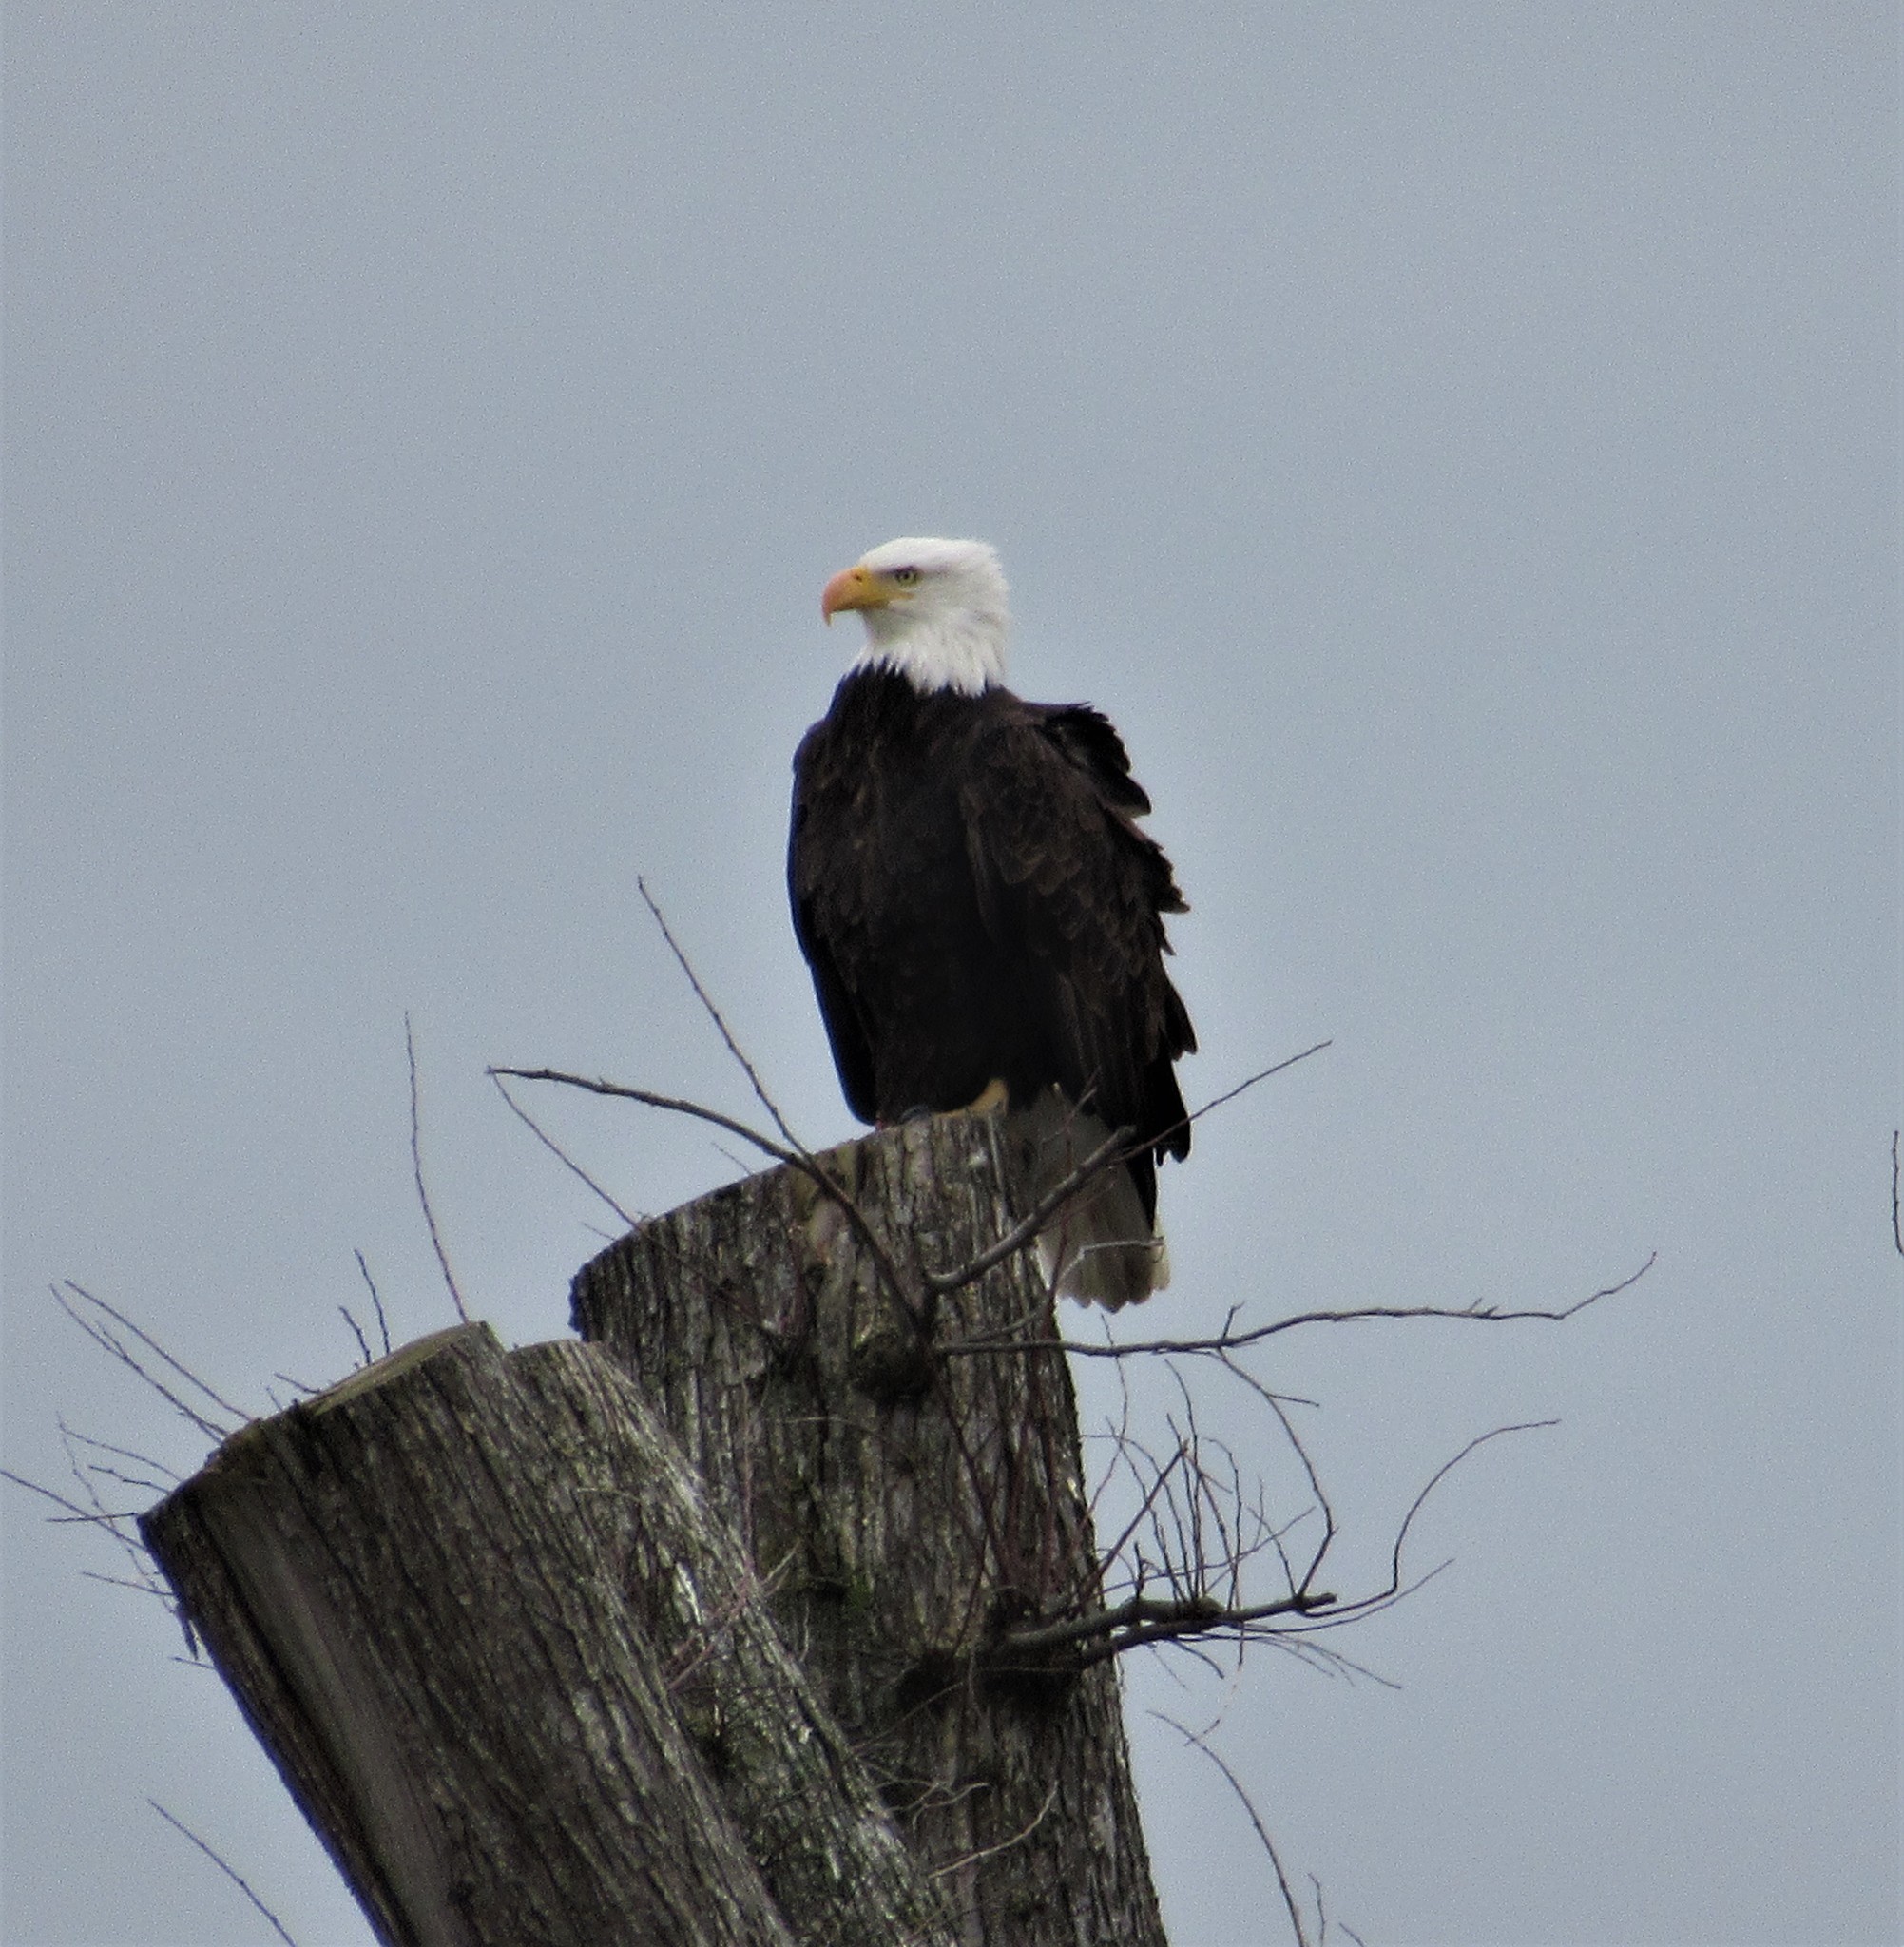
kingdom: Animalia
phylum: Chordata
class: Aves
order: Accipitriformes
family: Accipitridae
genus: Haliaeetus
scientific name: Haliaeetus leucocephalus
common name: Bald eagle
